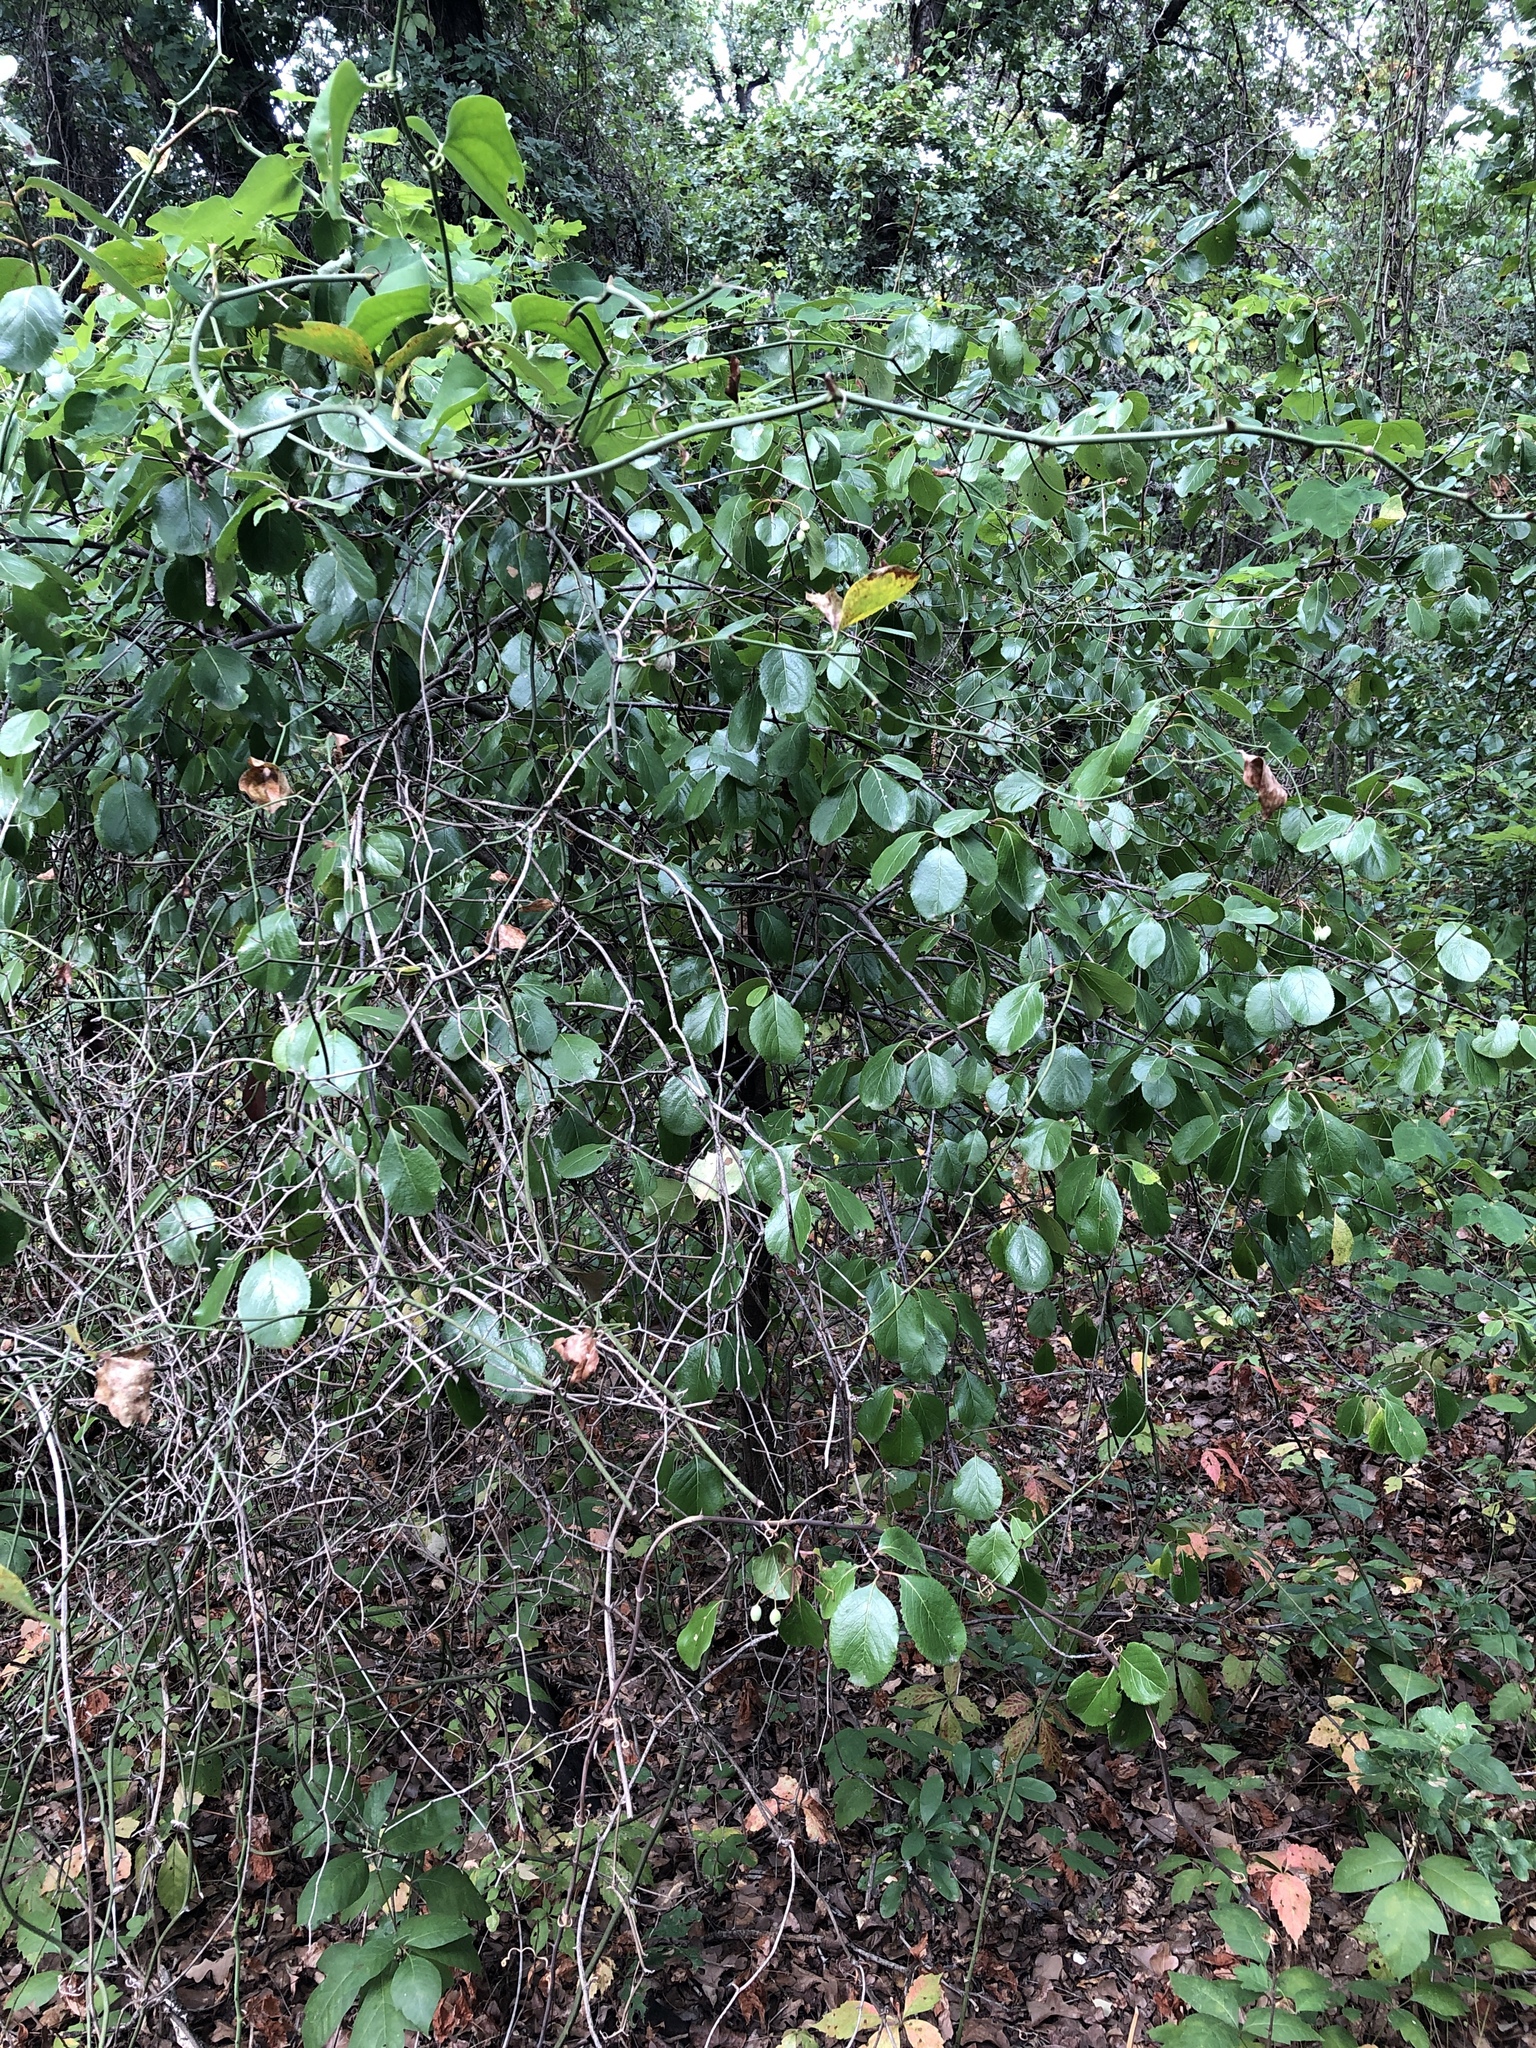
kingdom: Plantae
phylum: Tracheophyta
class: Magnoliopsida
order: Dipsacales
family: Viburnaceae
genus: Viburnum
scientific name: Viburnum rufidulum
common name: Blue haw
